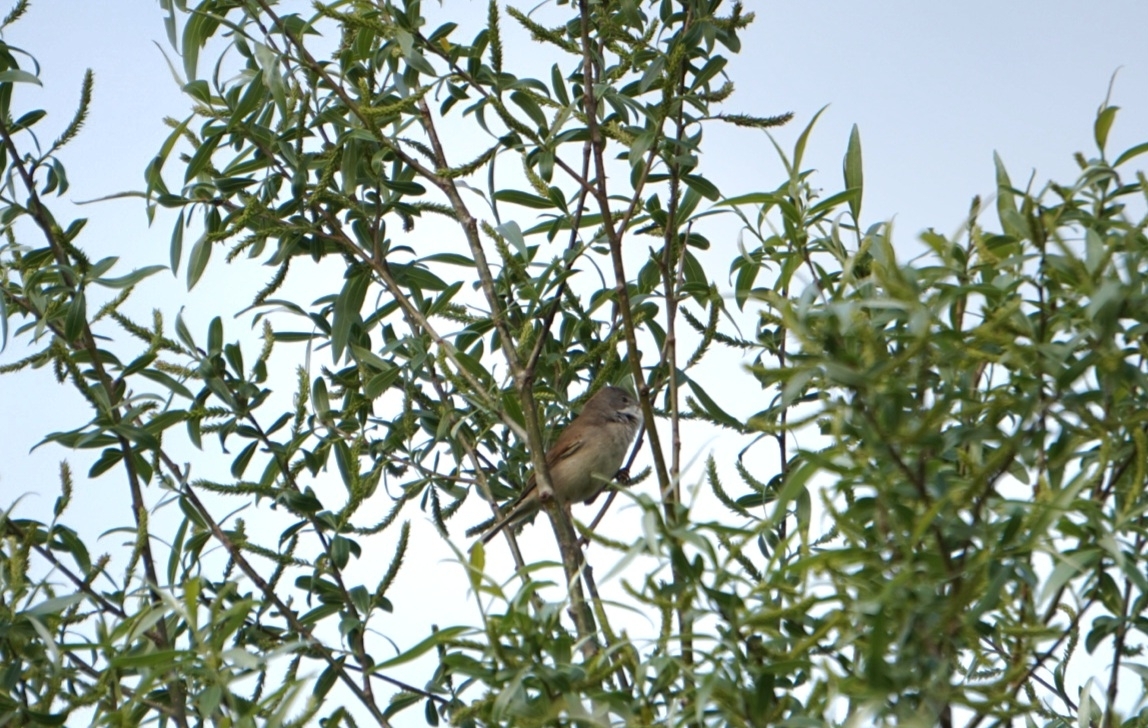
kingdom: Animalia
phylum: Chordata
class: Aves
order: Passeriformes
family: Sylviidae
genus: Sylvia
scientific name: Sylvia communis
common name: Common whitethroat
